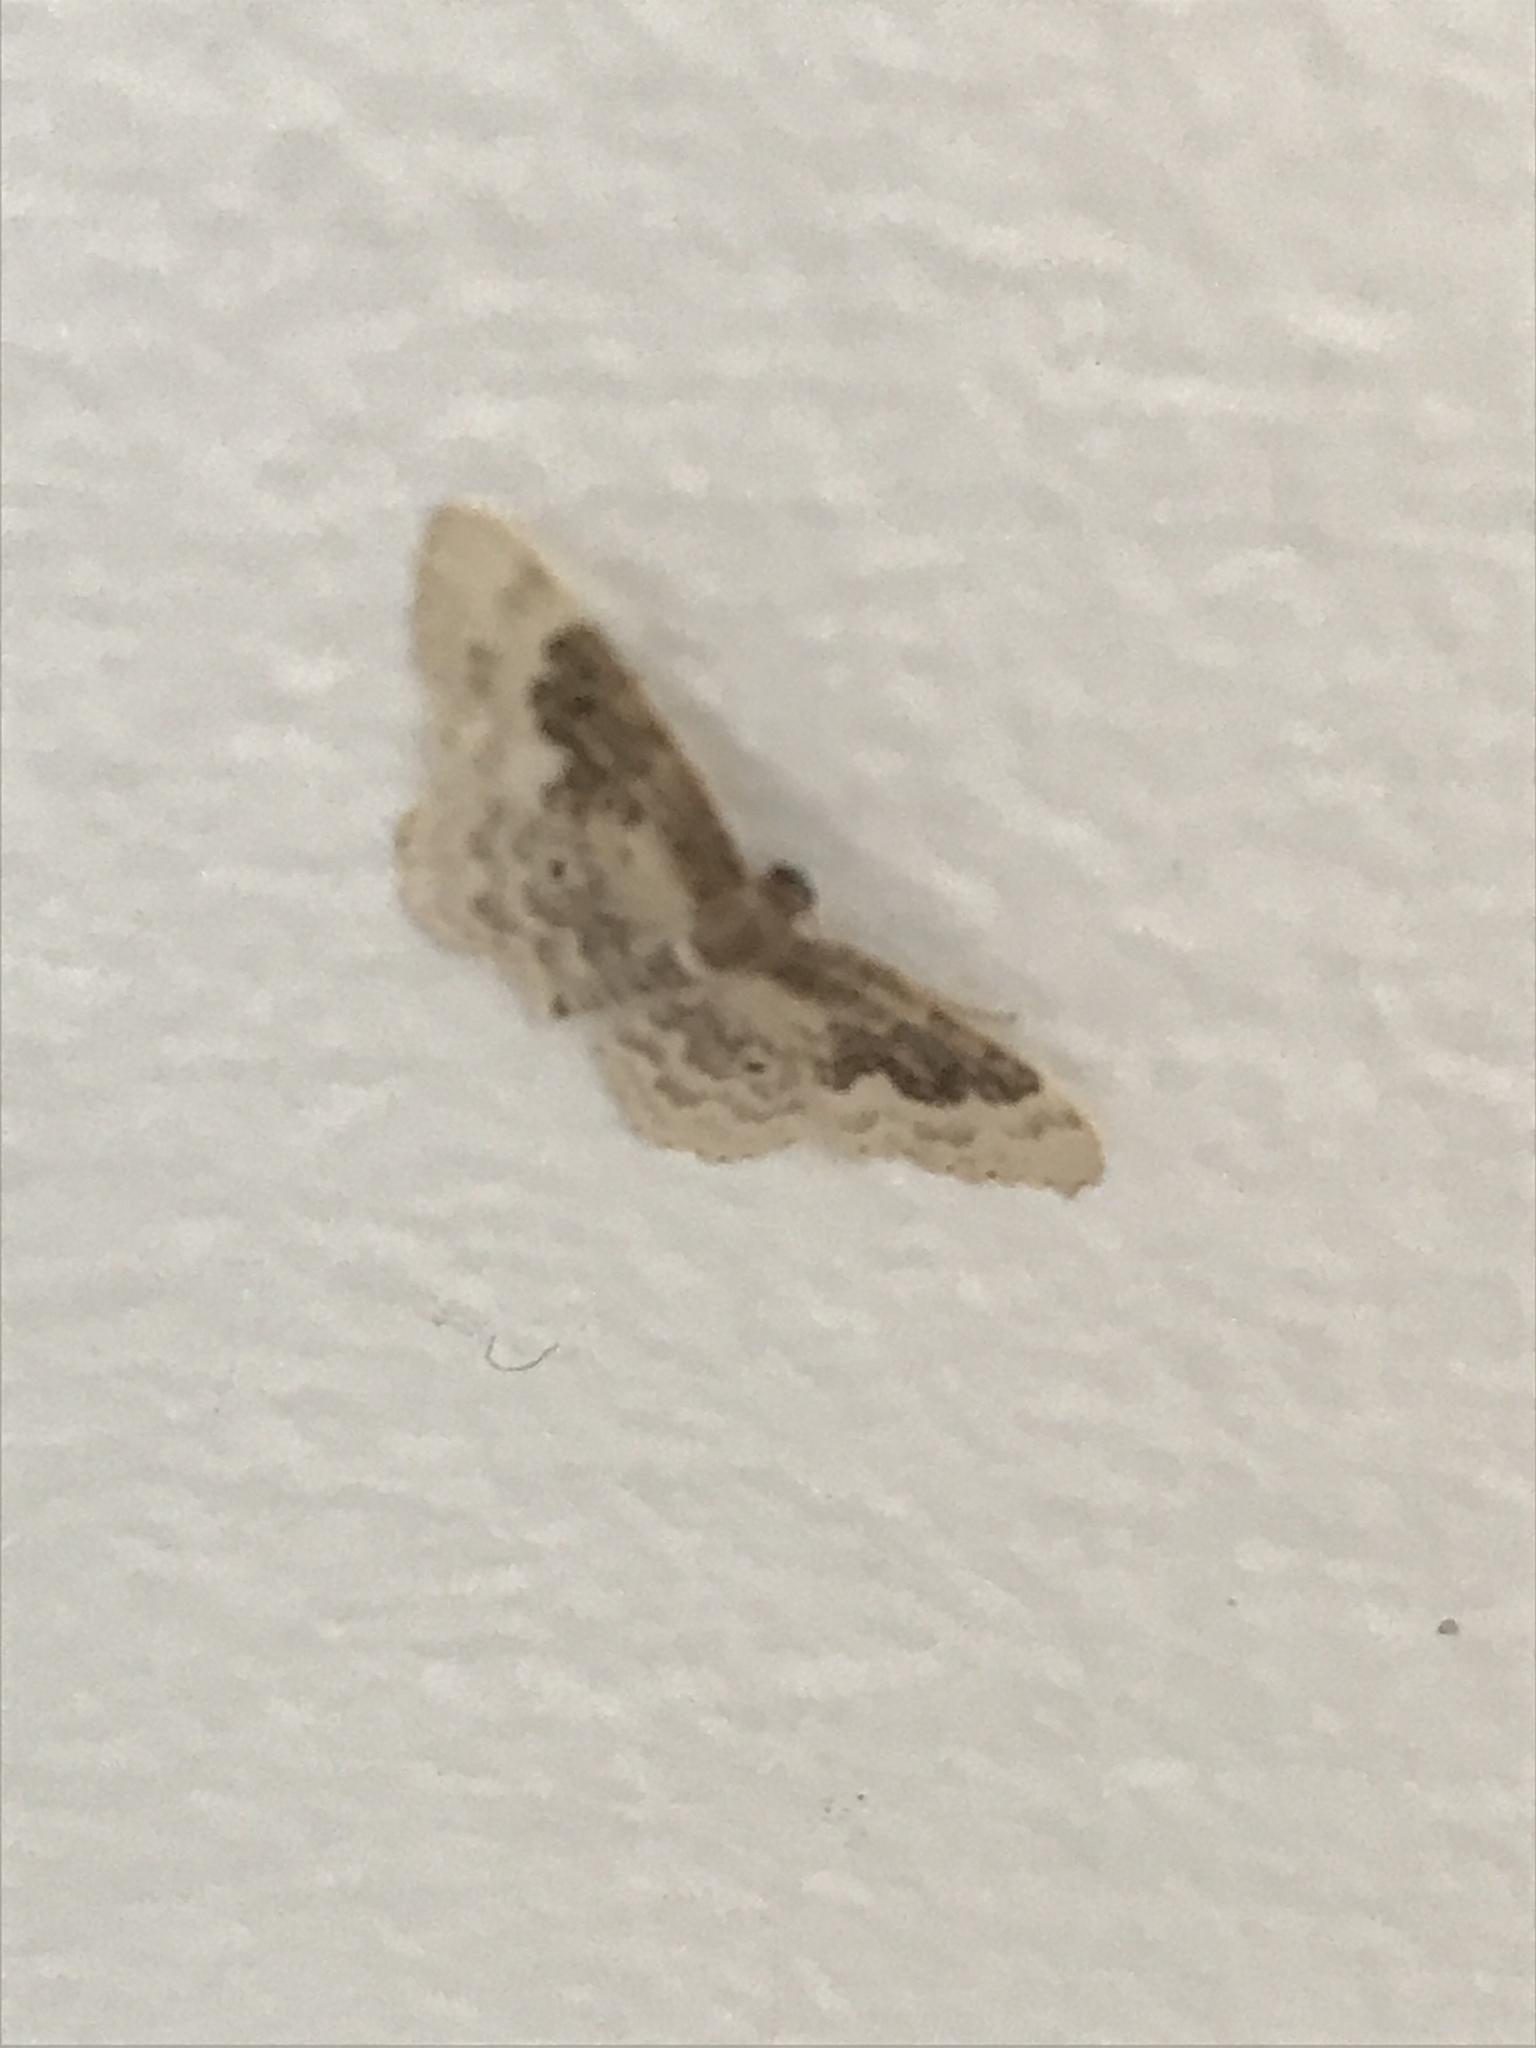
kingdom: Animalia
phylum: Arthropoda
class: Insecta
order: Lepidoptera
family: Geometridae
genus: Idaea
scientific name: Idaea rusticata
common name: Least carpet
